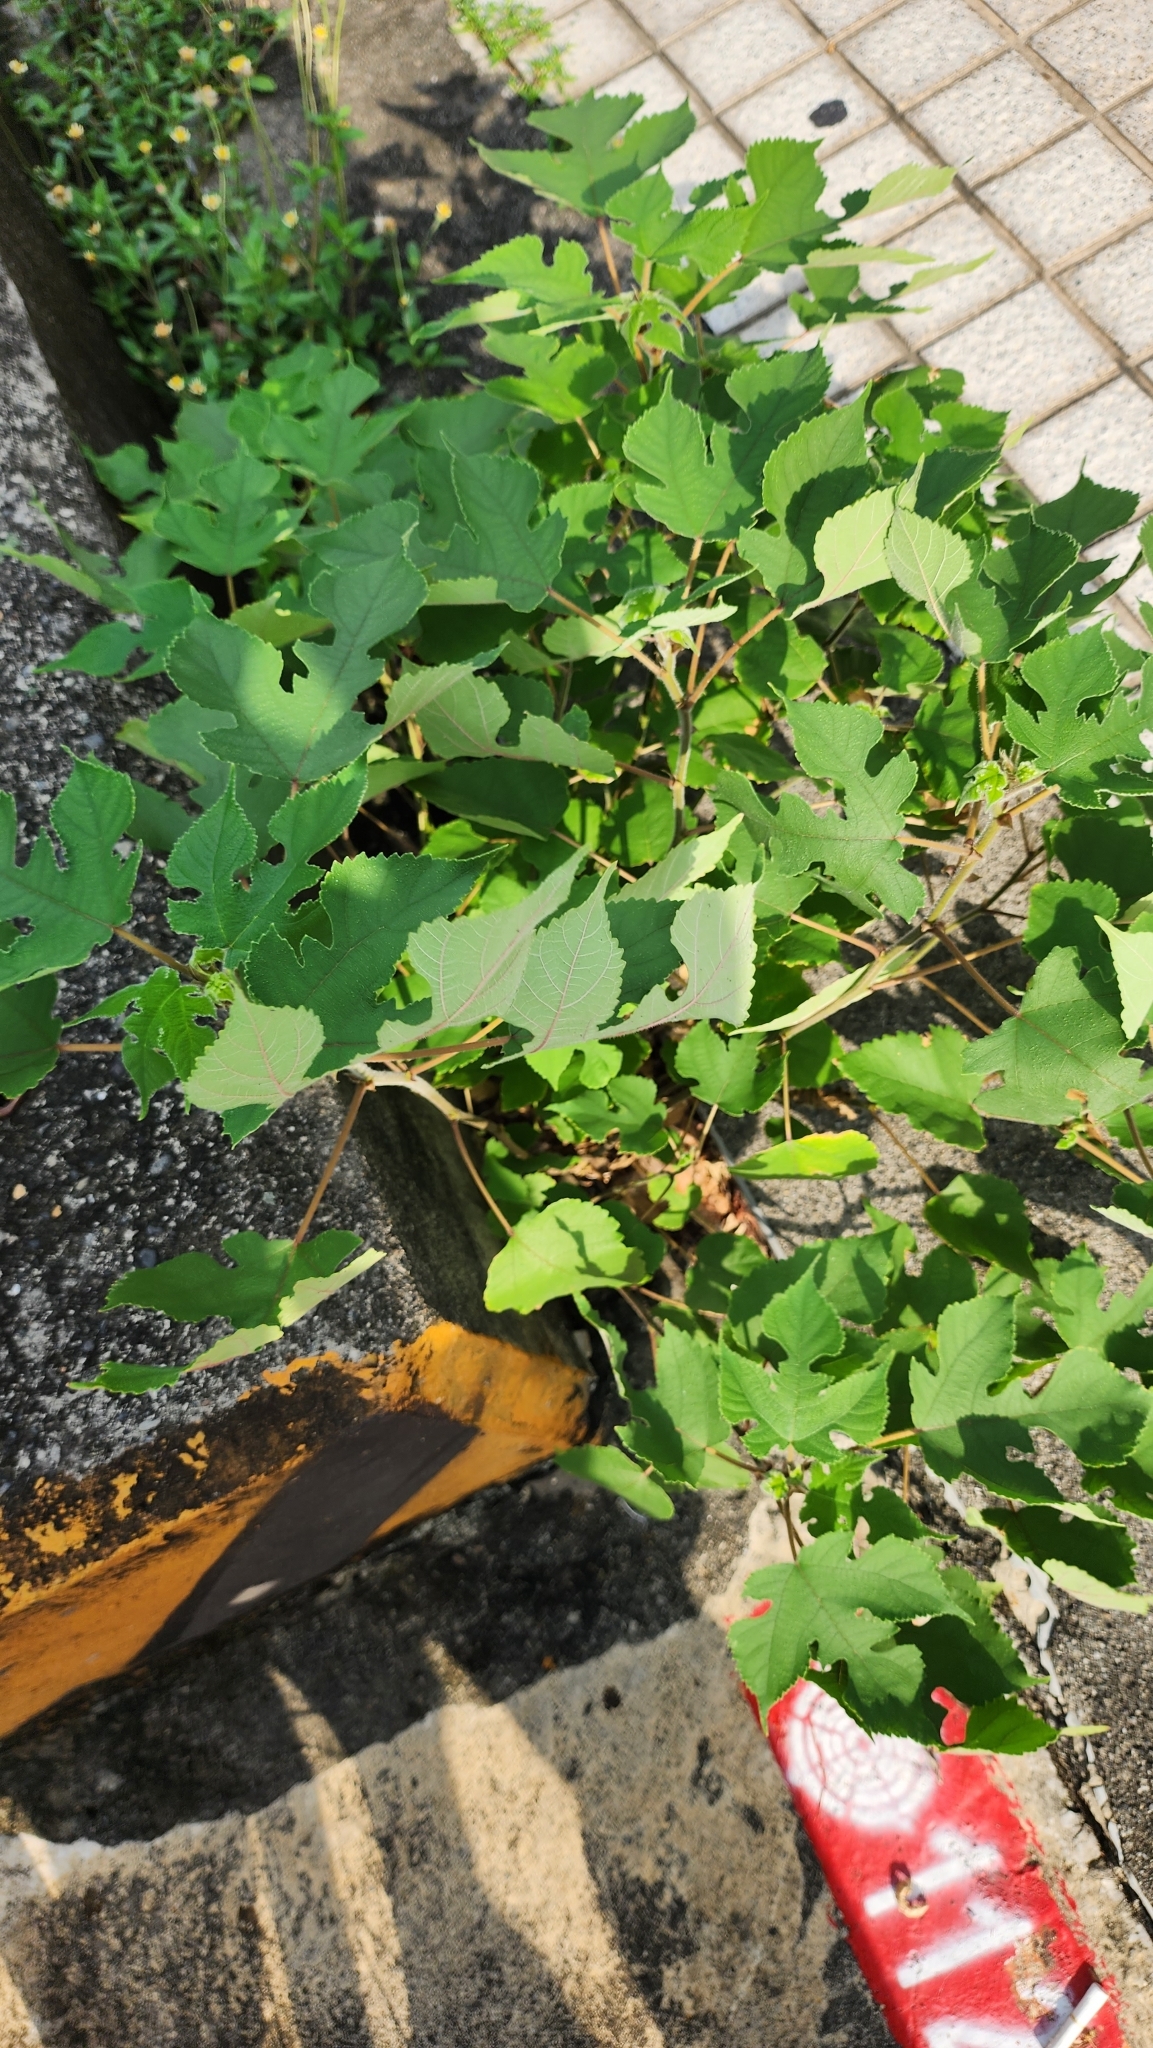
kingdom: Plantae
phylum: Tracheophyta
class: Magnoliopsida
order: Rosales
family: Moraceae
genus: Broussonetia
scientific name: Broussonetia papyrifera
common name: Paper mulberry
